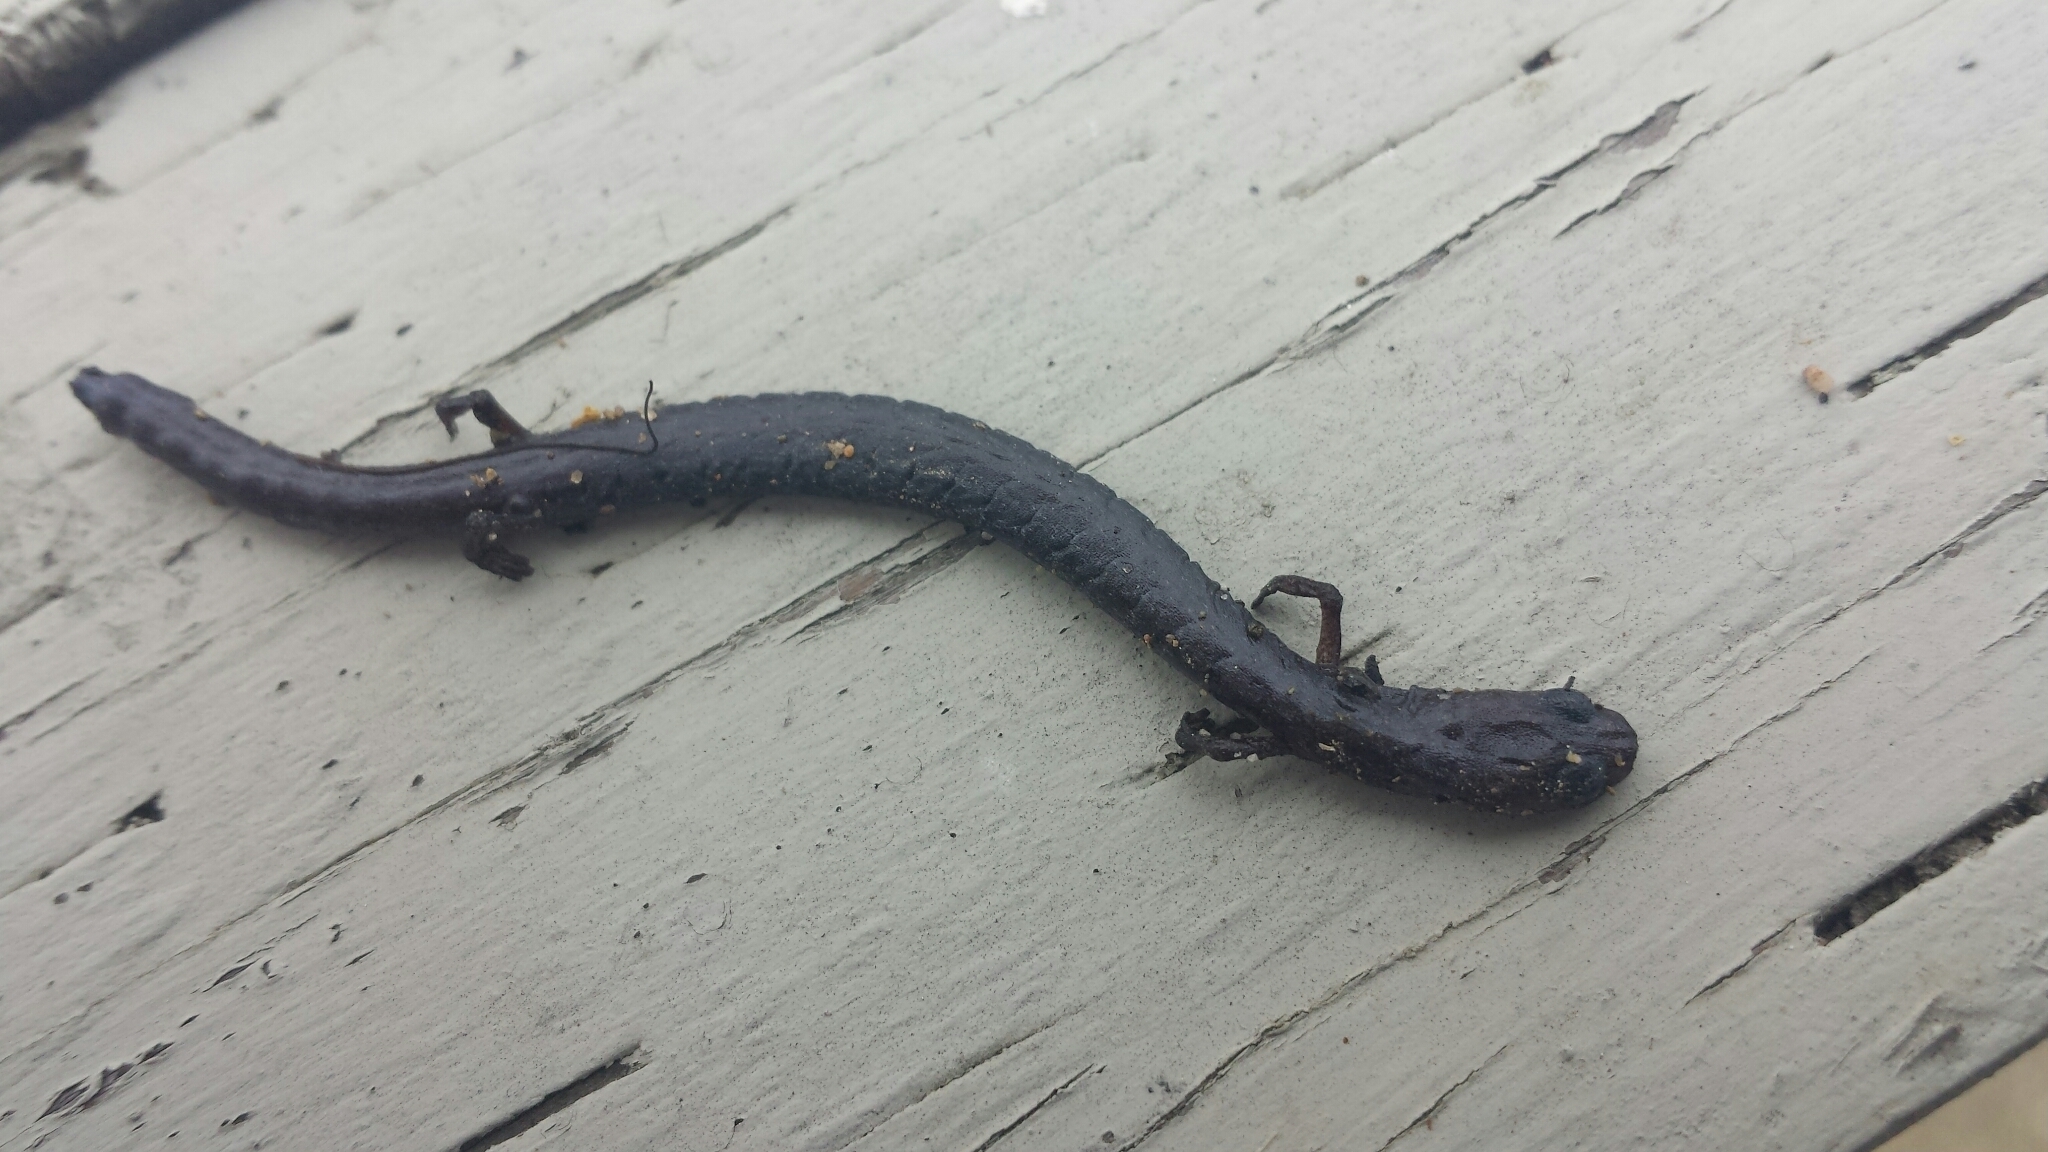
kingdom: Animalia
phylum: Chordata
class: Amphibia
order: Caudata
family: Plethodontidae
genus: Batrachoseps
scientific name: Batrachoseps attenuatus
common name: California slender salamander
